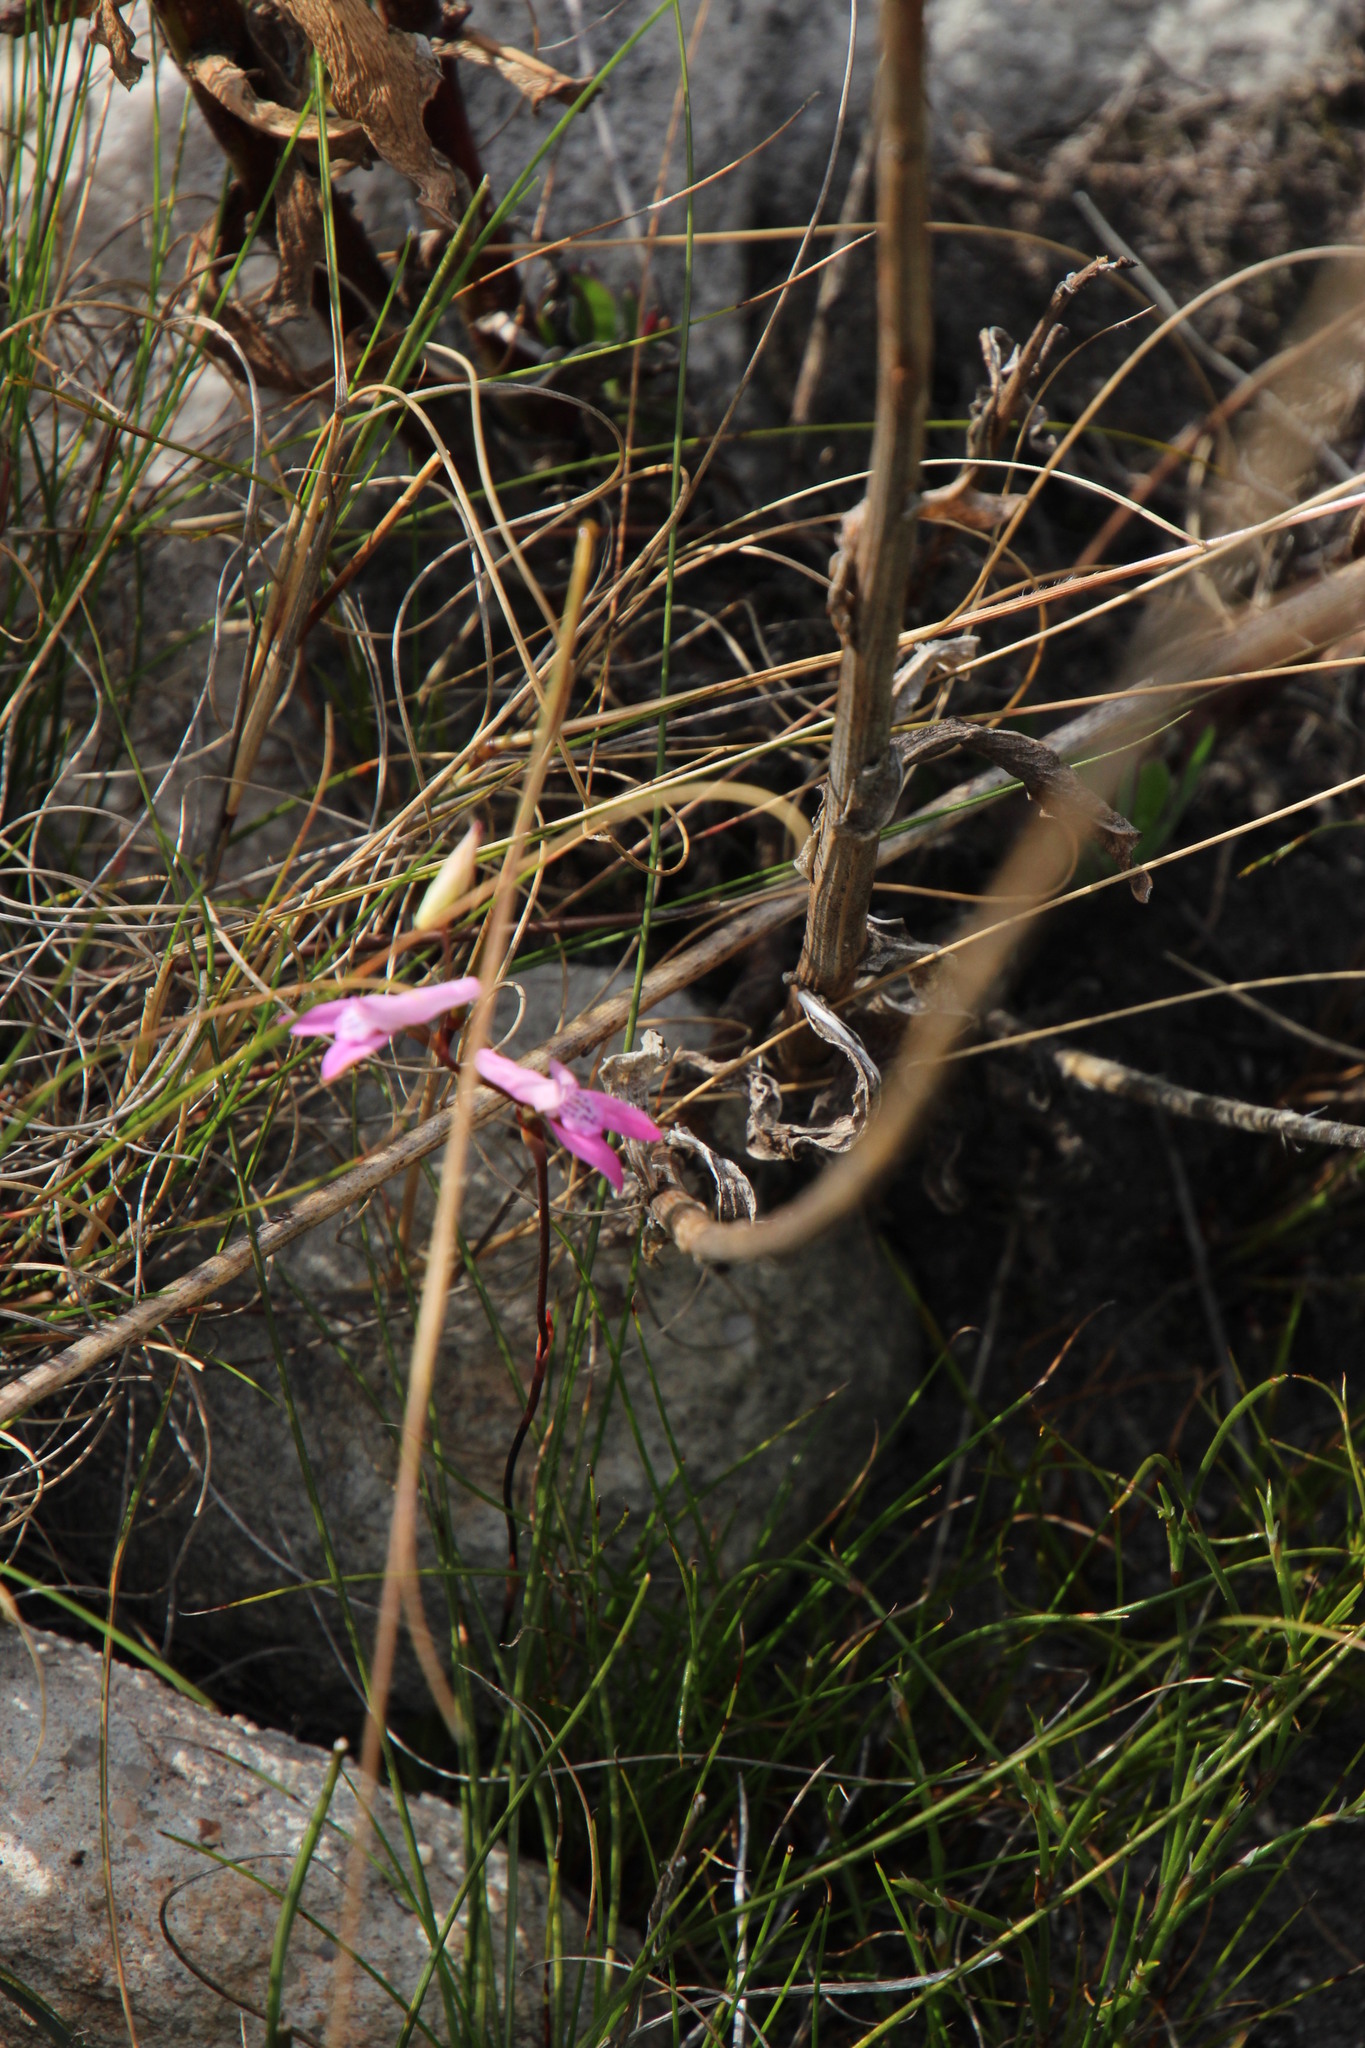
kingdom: Plantae
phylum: Tracheophyta
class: Liliopsida
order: Asparagales
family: Orchidaceae
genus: Disa
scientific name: Disa inflexa
